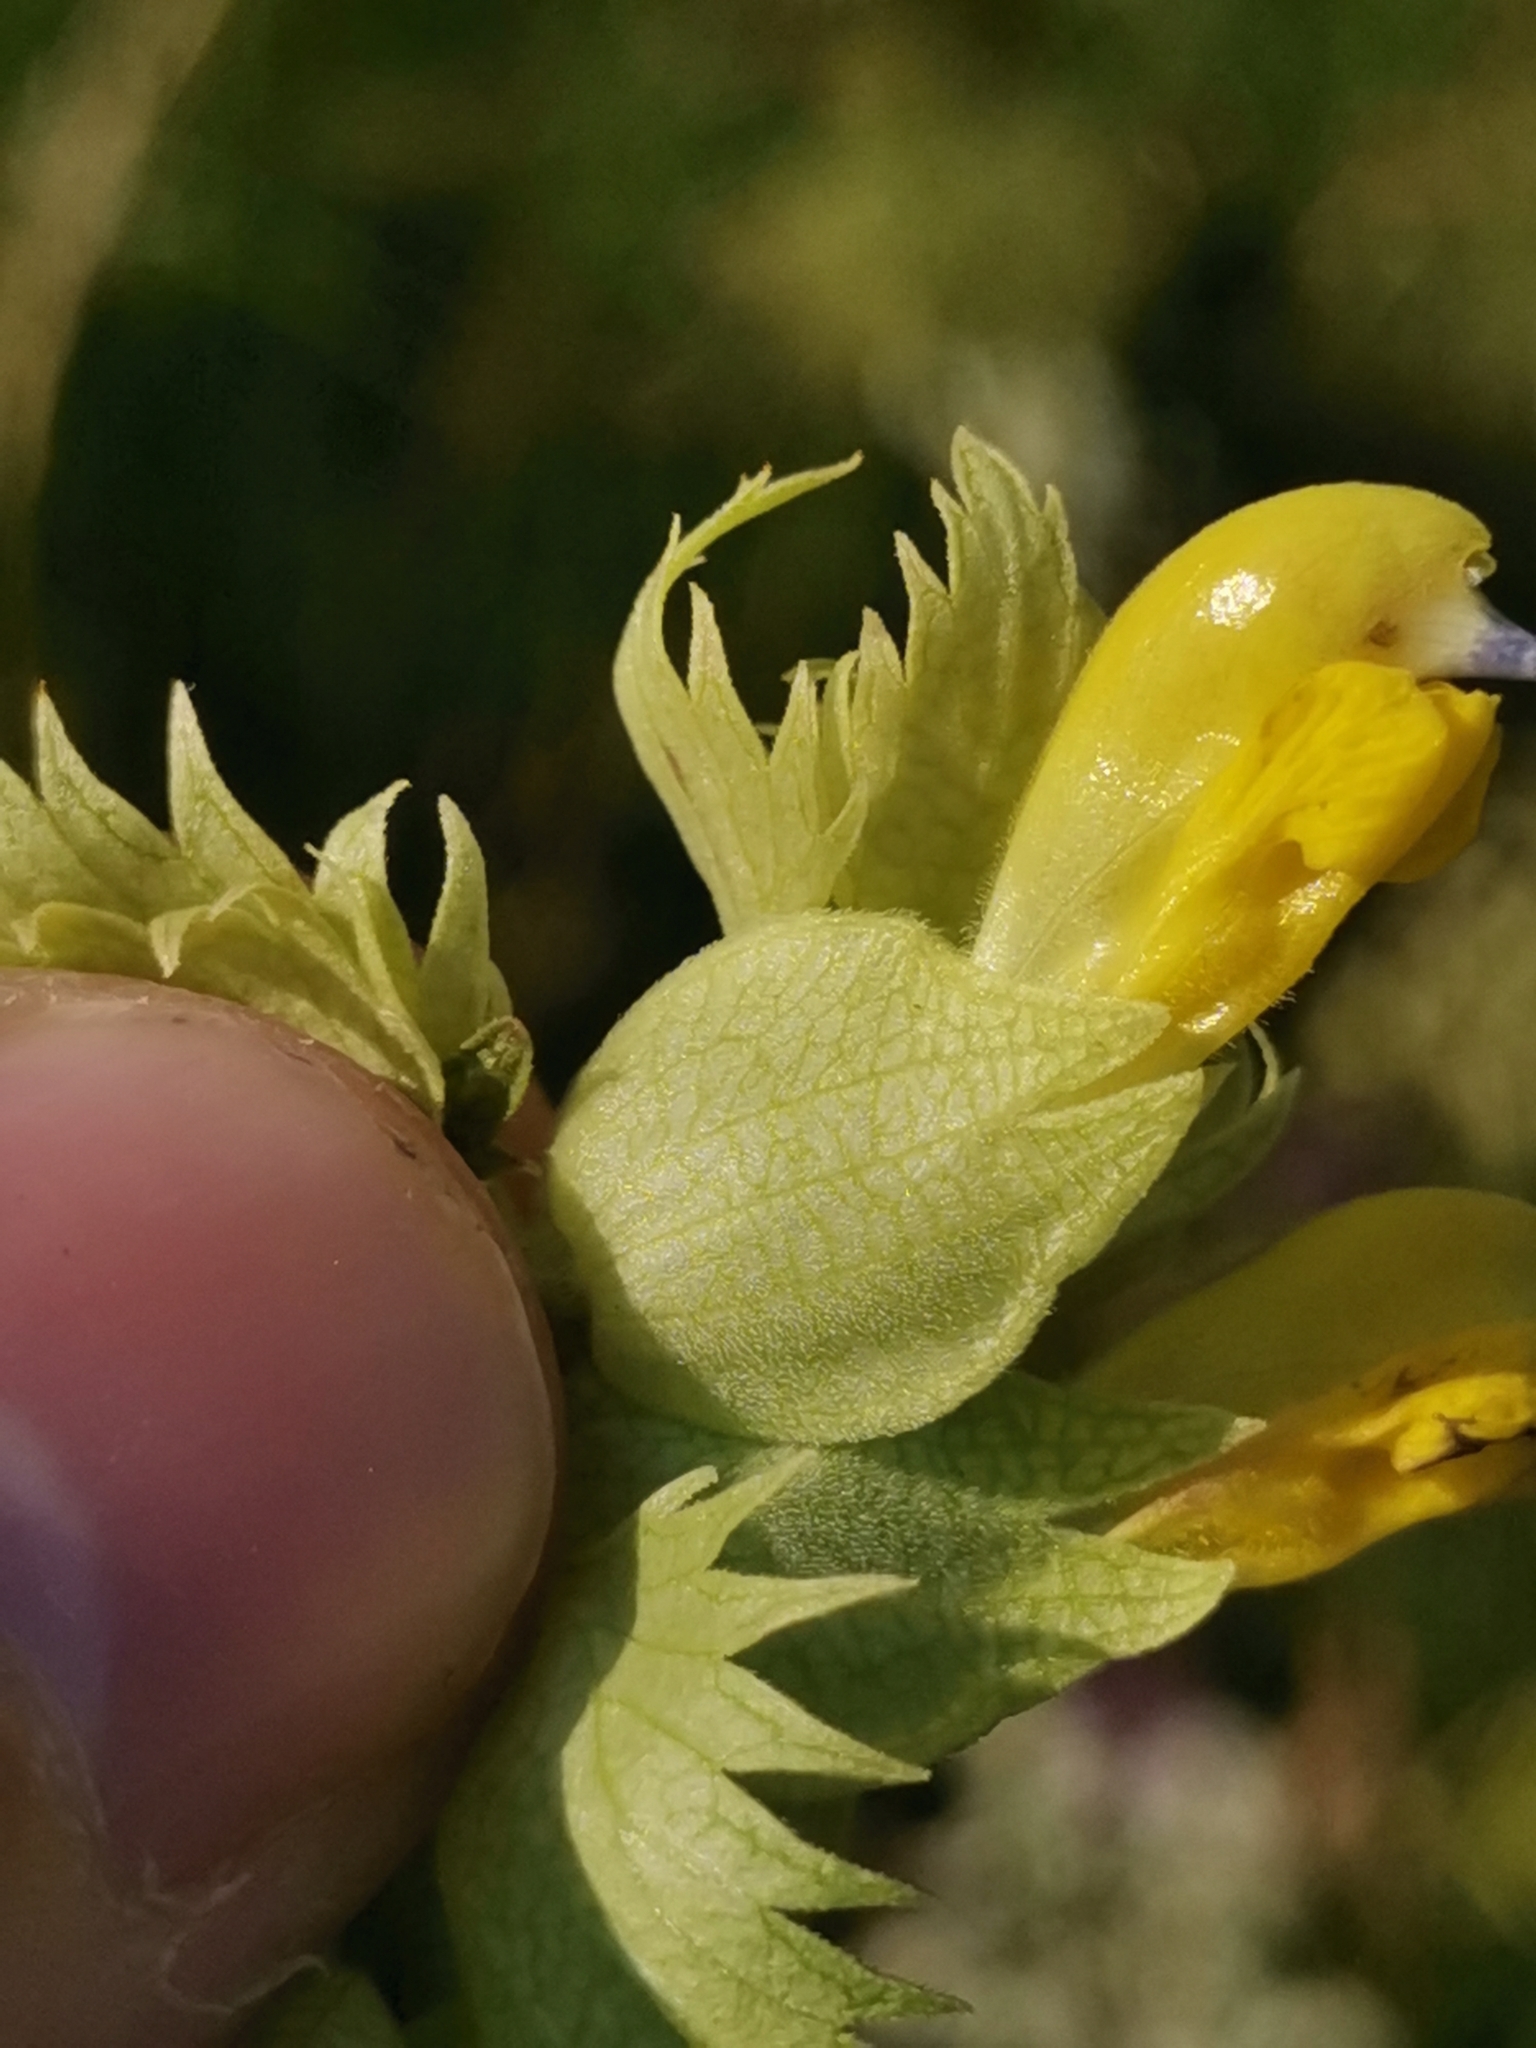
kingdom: Plantae
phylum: Tracheophyta
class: Magnoliopsida
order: Lamiales
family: Orobanchaceae
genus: Rhinanthus
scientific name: Rhinanthus freynii
